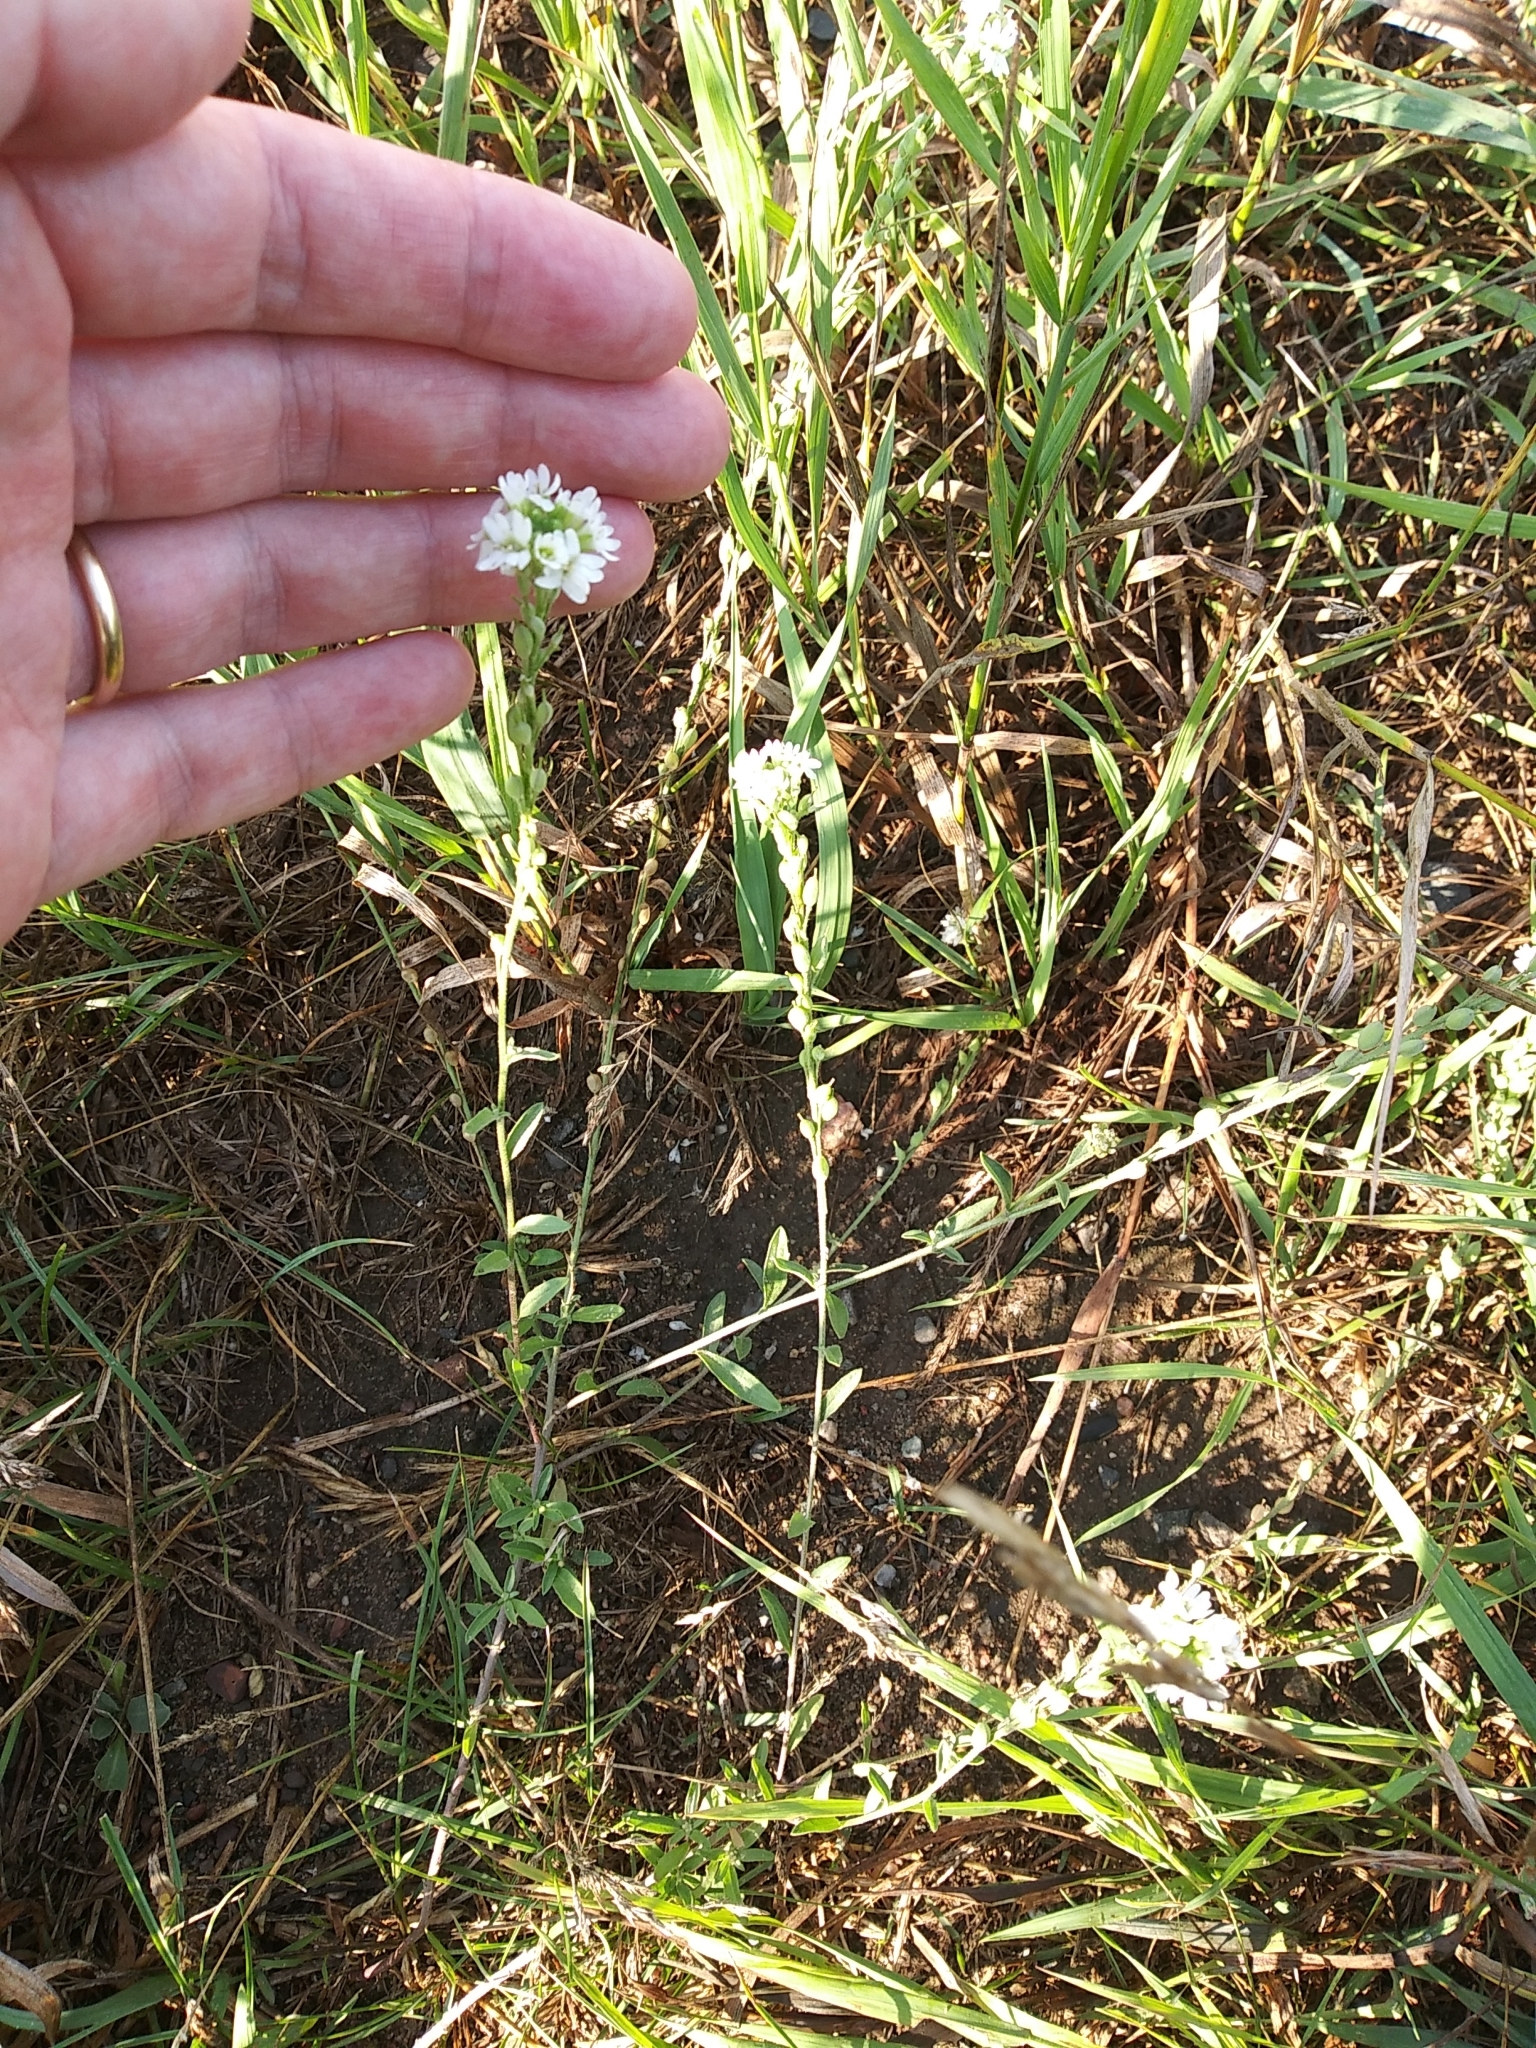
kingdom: Plantae
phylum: Tracheophyta
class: Magnoliopsida
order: Brassicales
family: Brassicaceae
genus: Berteroa
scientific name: Berteroa incana
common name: Hoary alison
